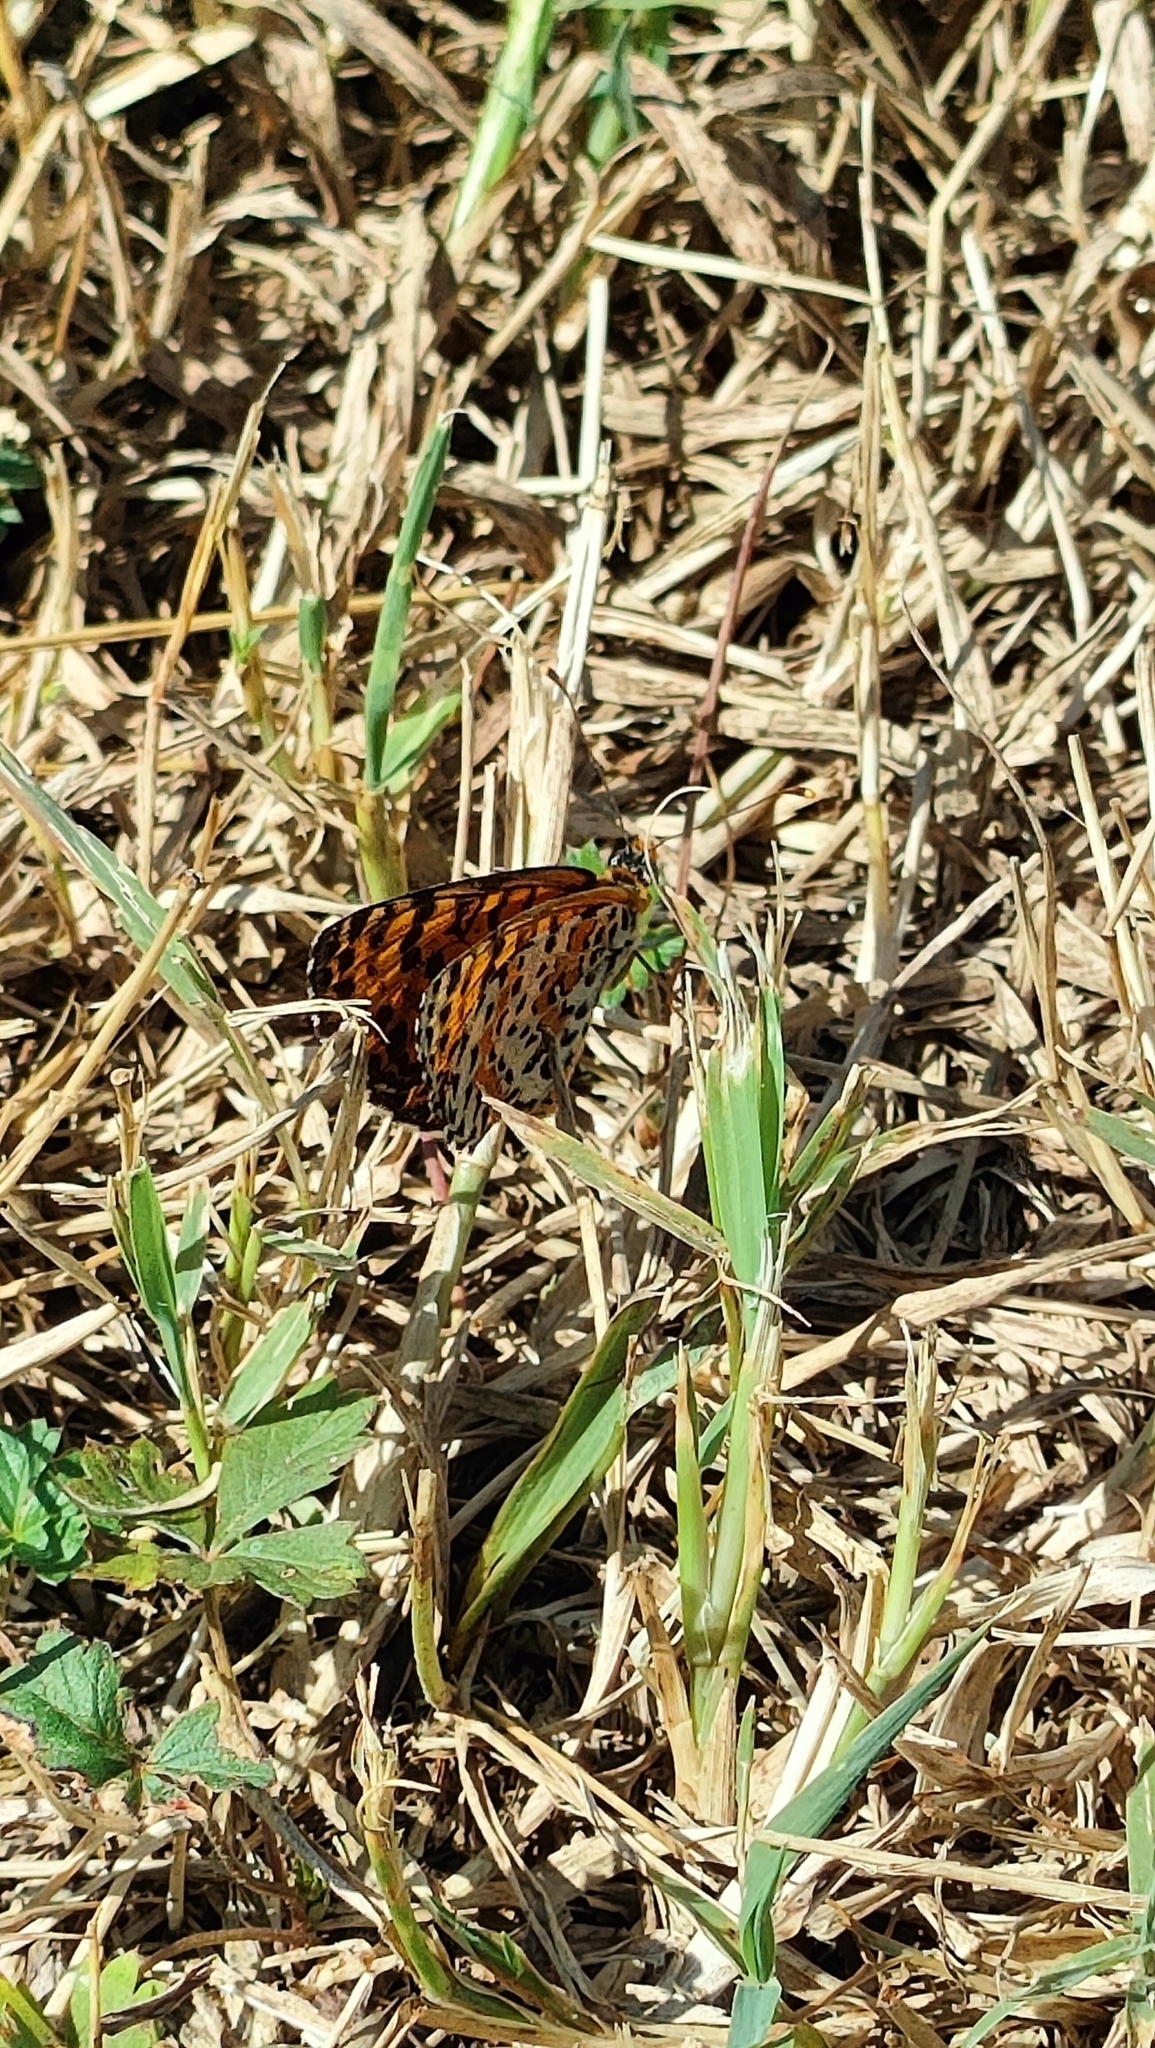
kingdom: Animalia
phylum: Arthropoda
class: Insecta
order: Lepidoptera
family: Nymphalidae
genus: Melitaea
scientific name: Melitaea didyma
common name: Spotted fritillary
